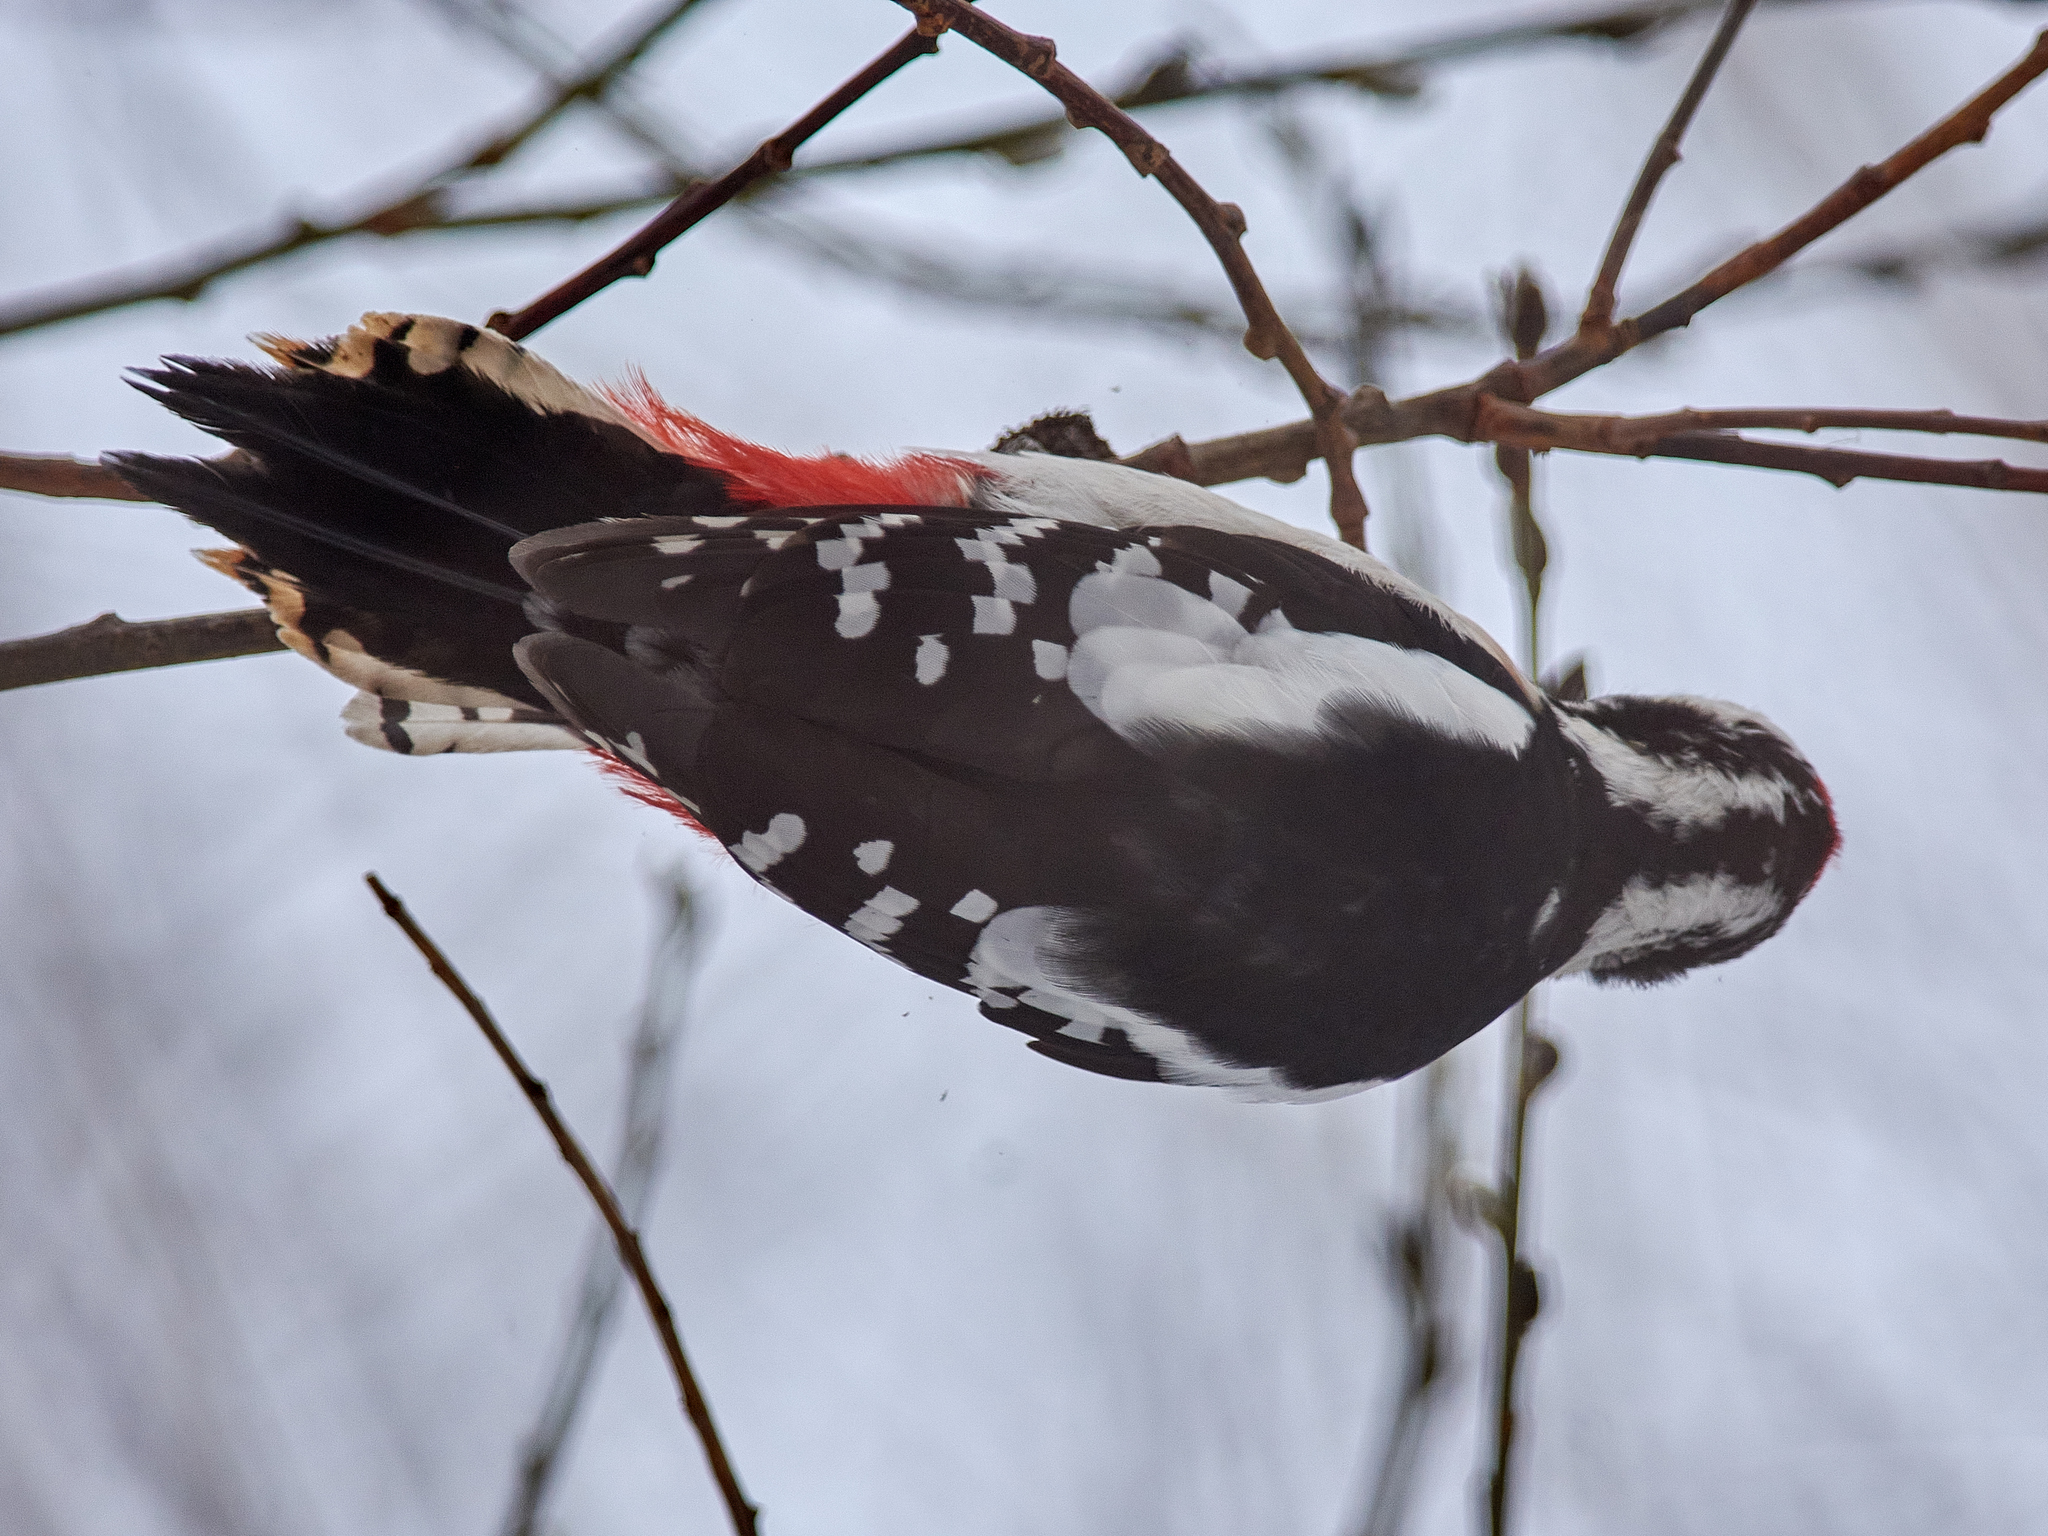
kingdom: Animalia
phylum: Chordata
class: Aves
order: Piciformes
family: Picidae
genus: Dendrocopos
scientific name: Dendrocopos major
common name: Great spotted woodpecker
